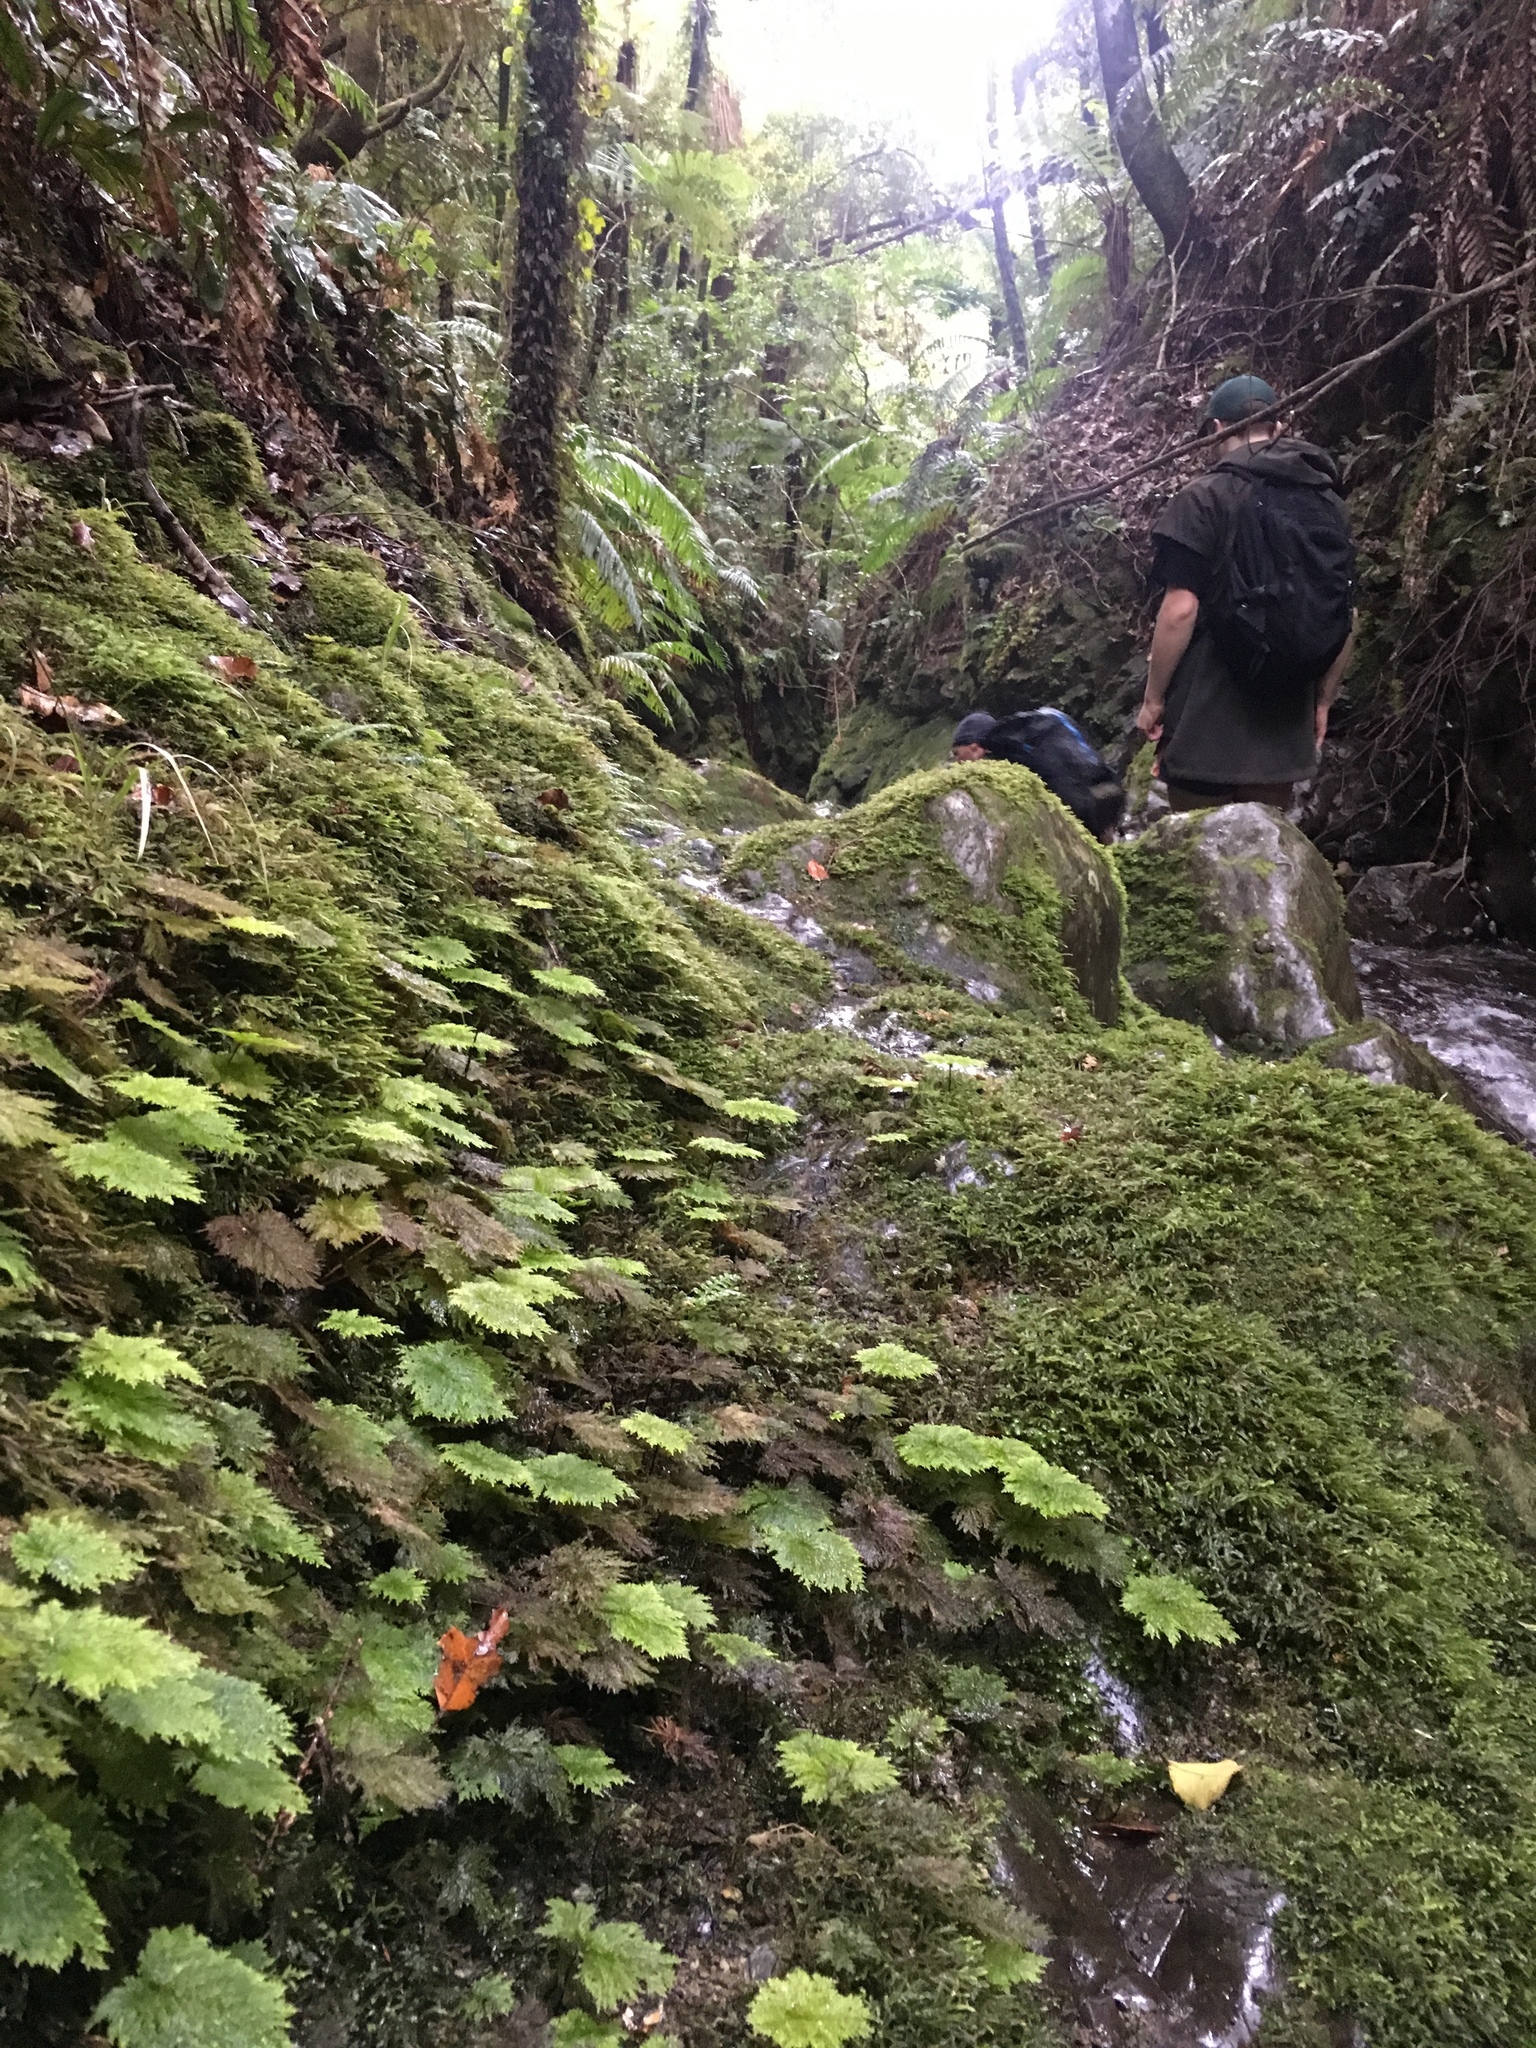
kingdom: Plantae
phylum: Bryophyta
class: Bryopsida
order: Hypopterygiales
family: Hypopterygiaceae
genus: Dendrohypopterygium
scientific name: Dendrohypopterygium filiculiforme
